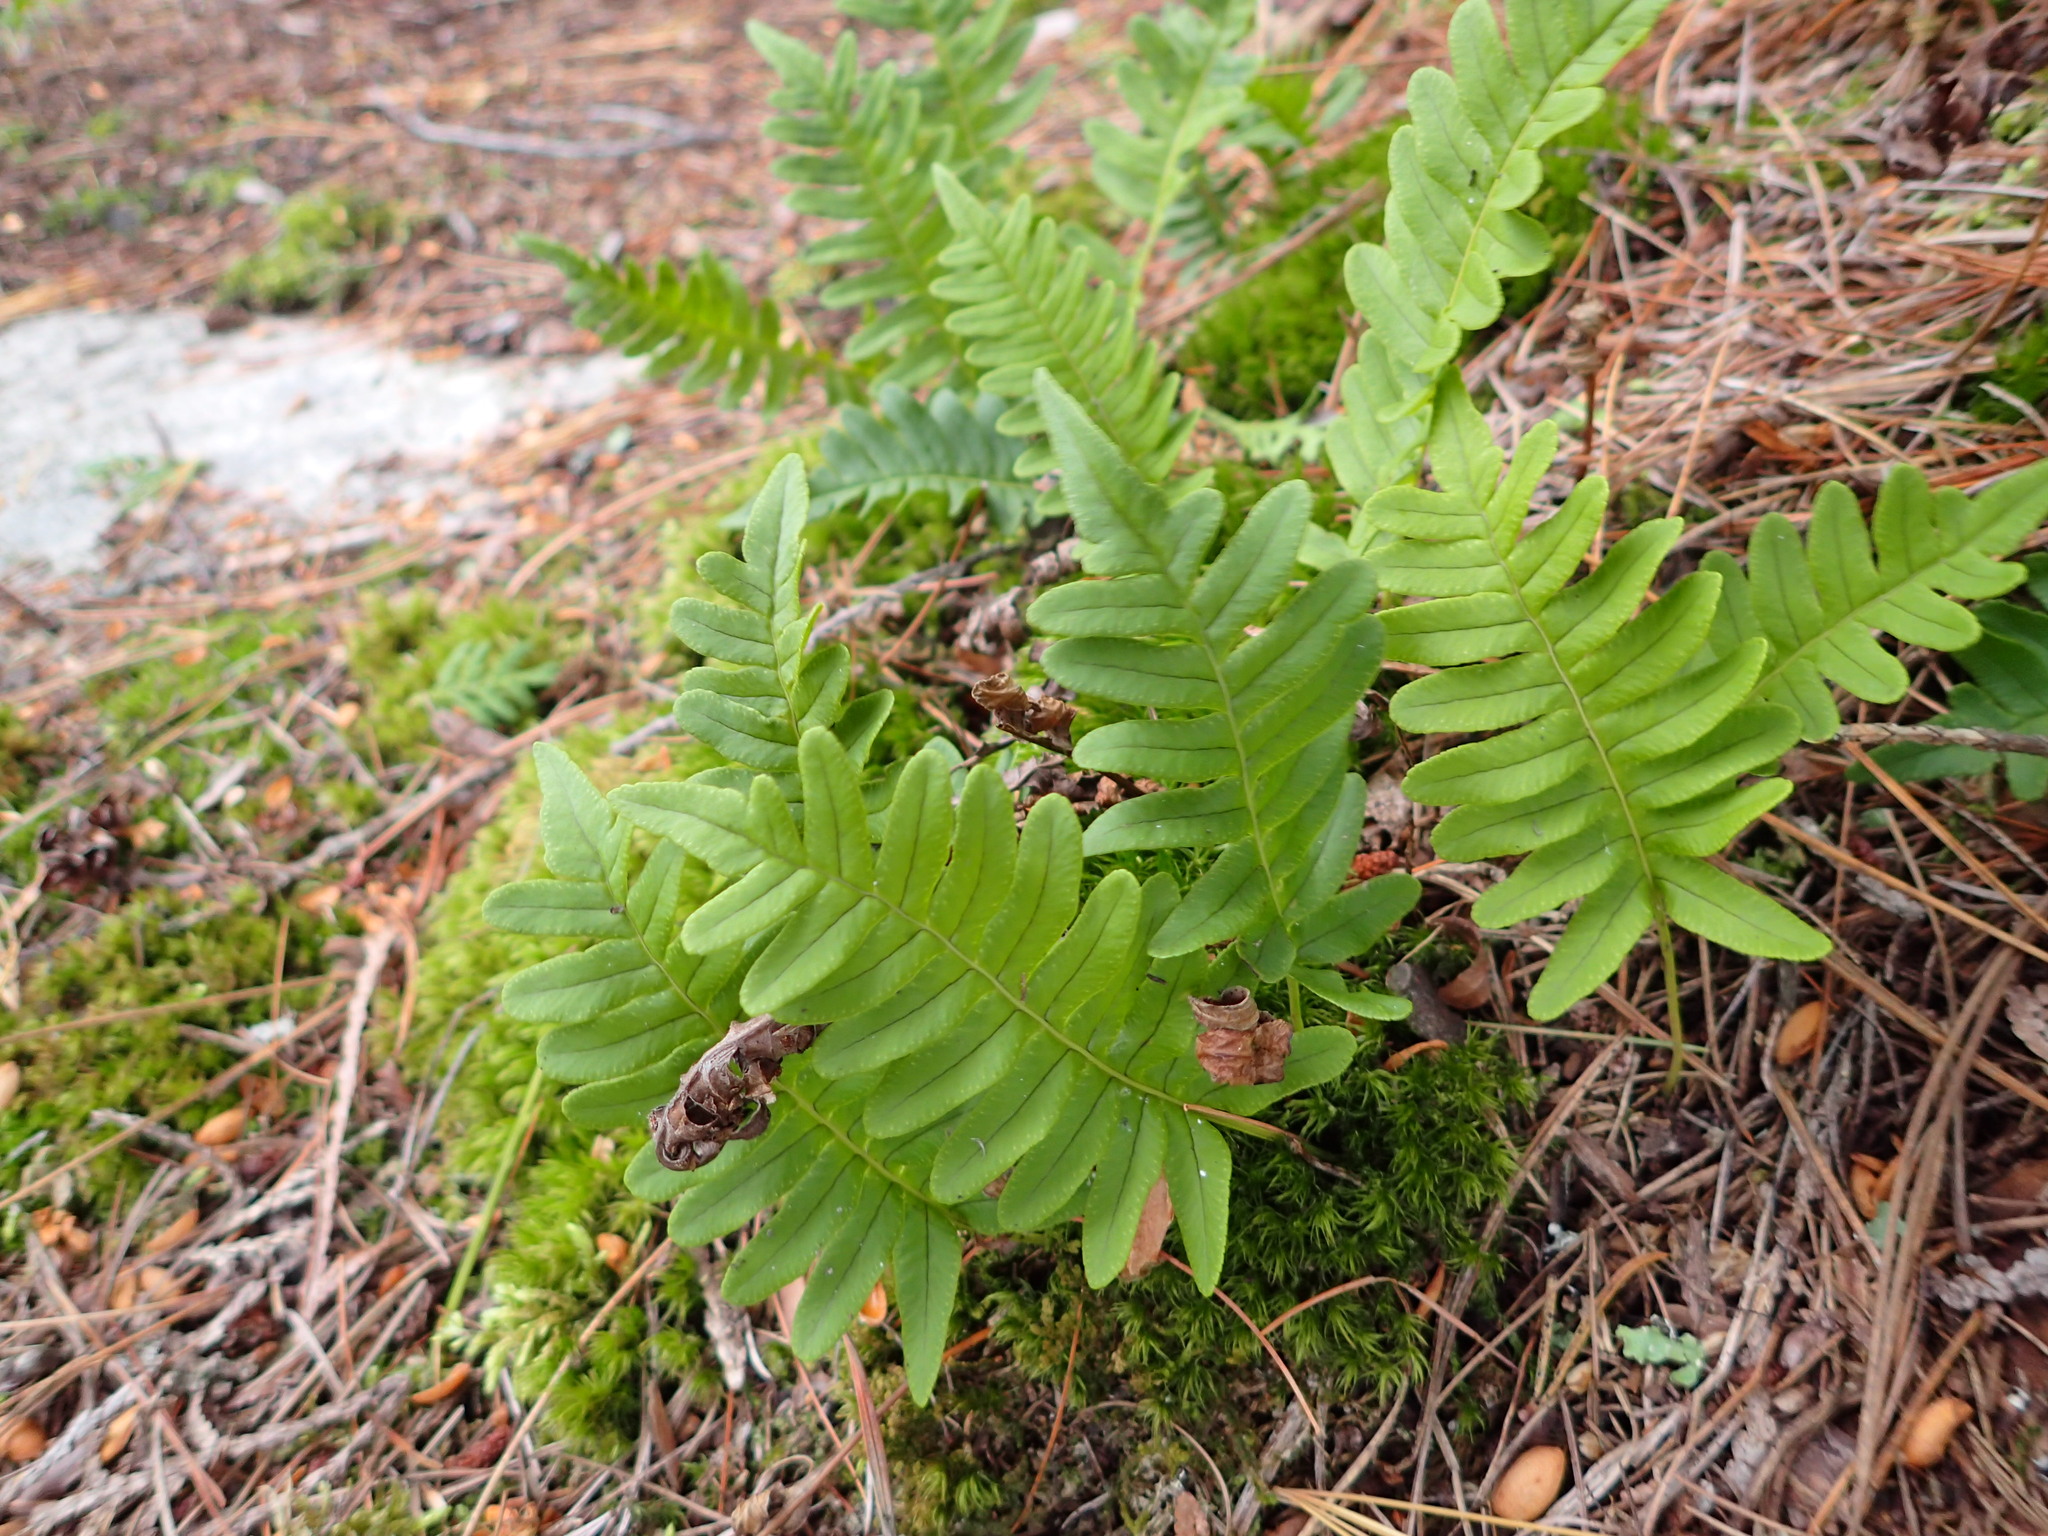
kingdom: Plantae
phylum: Tracheophyta
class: Polypodiopsida
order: Polypodiales
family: Polypodiaceae
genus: Polypodium
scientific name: Polypodium virginianum
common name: American wall fern
